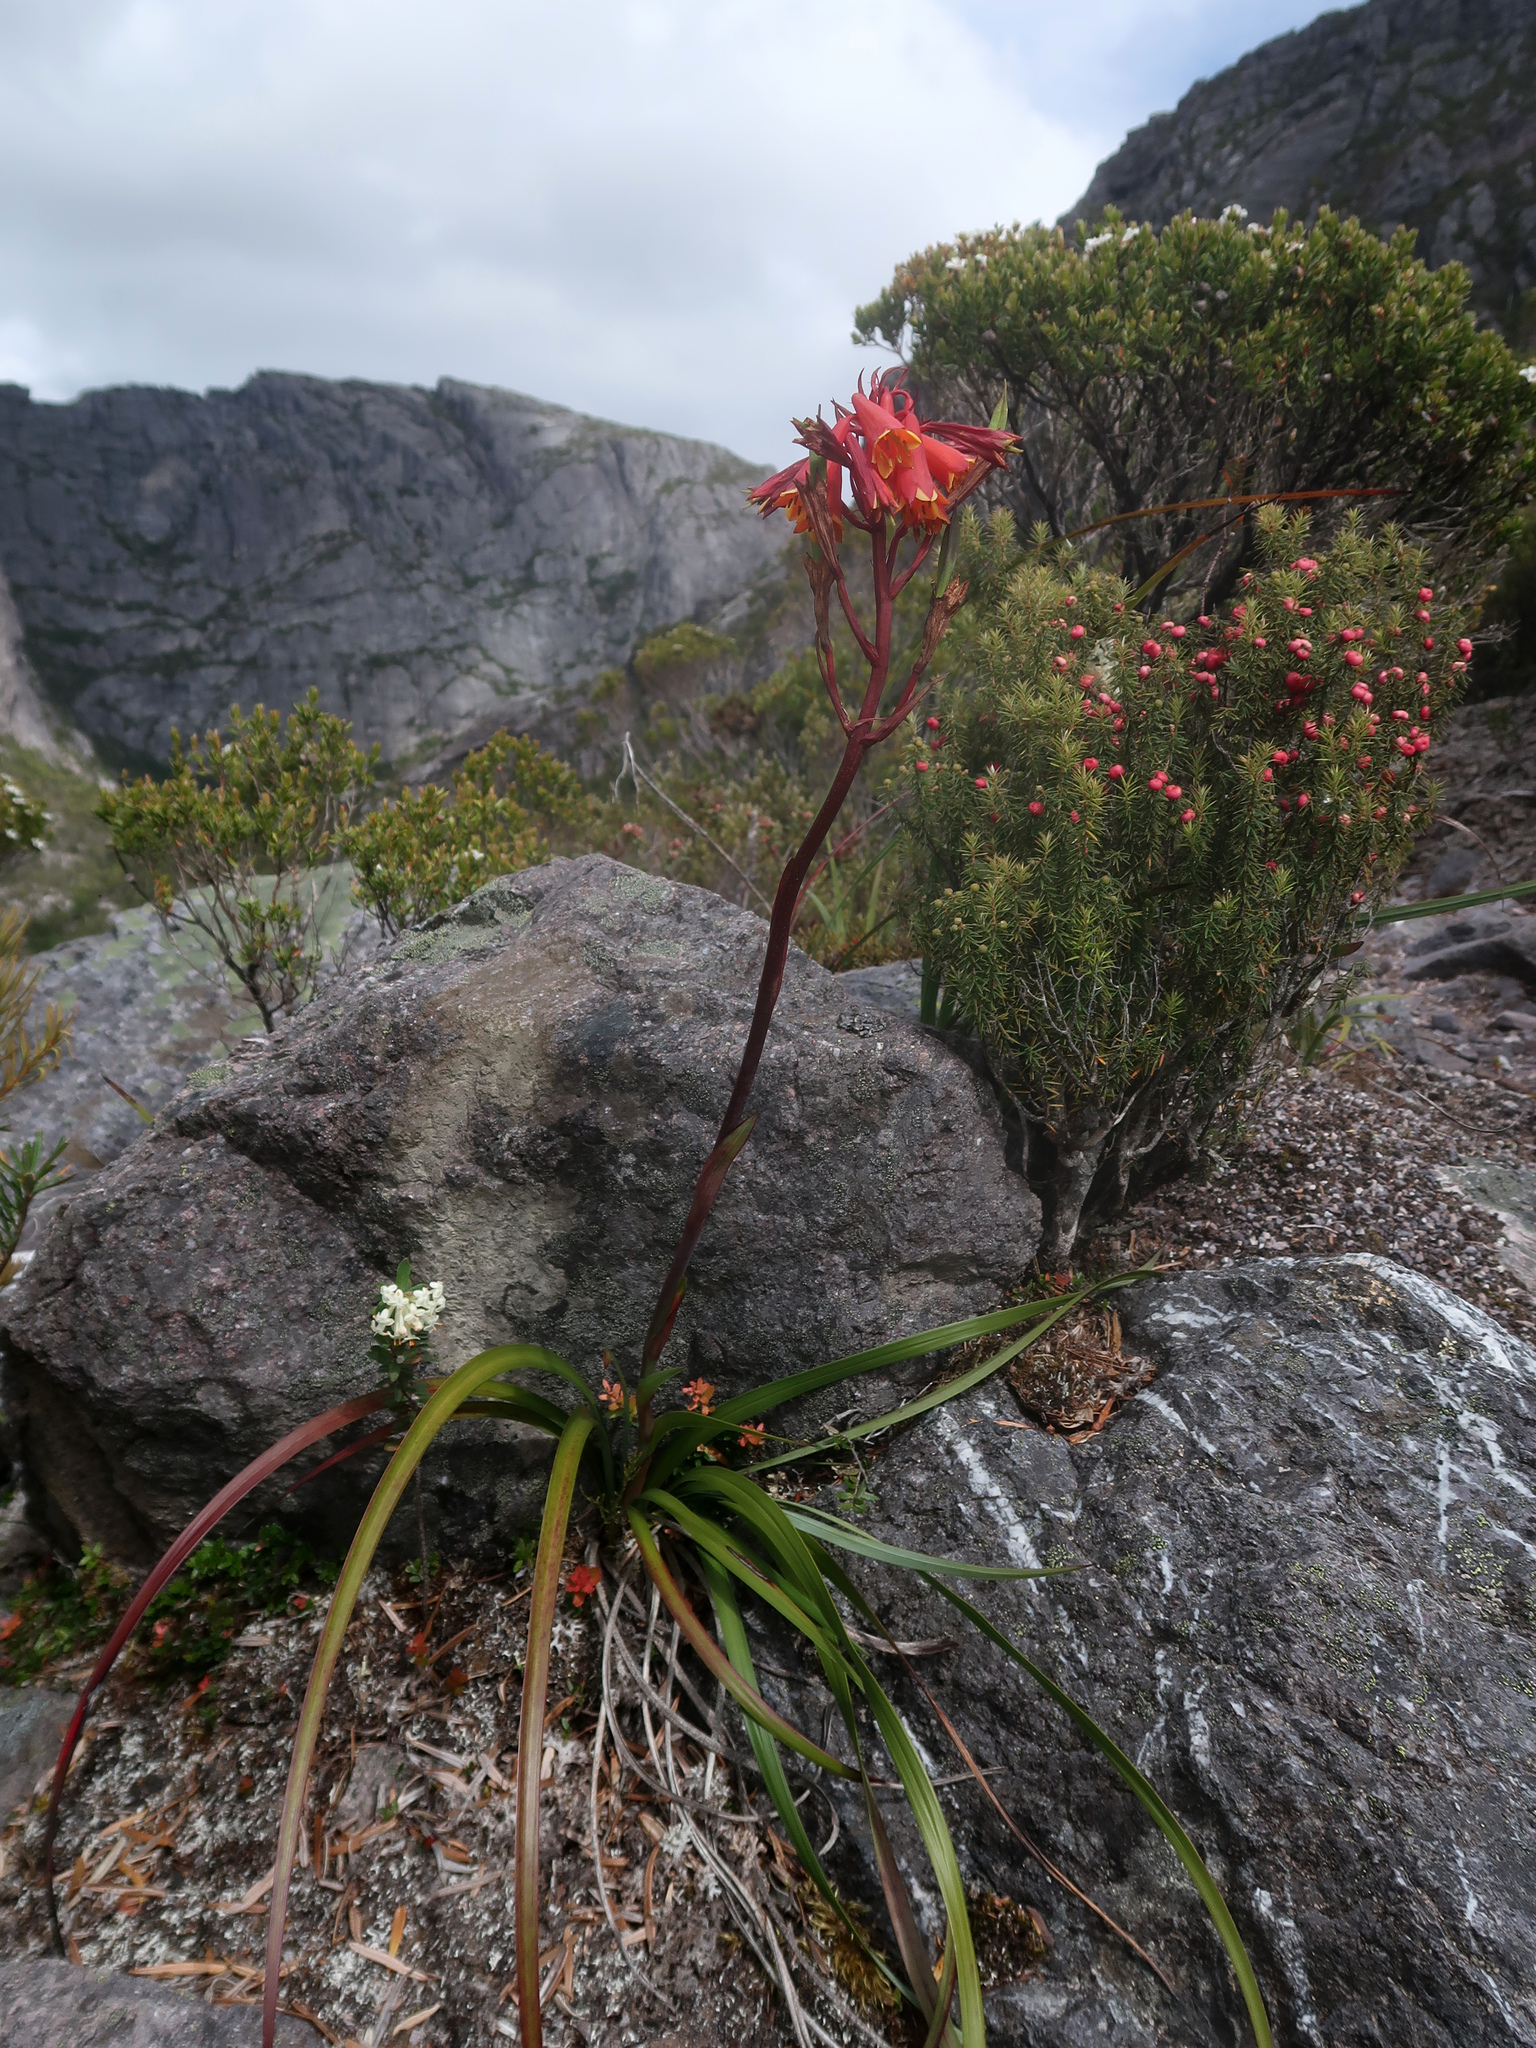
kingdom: Plantae
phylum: Tracheophyta
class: Liliopsida
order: Asparagales
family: Blandfordiaceae
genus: Blandfordia
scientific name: Blandfordia punicea
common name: Tasmanian christmas-bell
